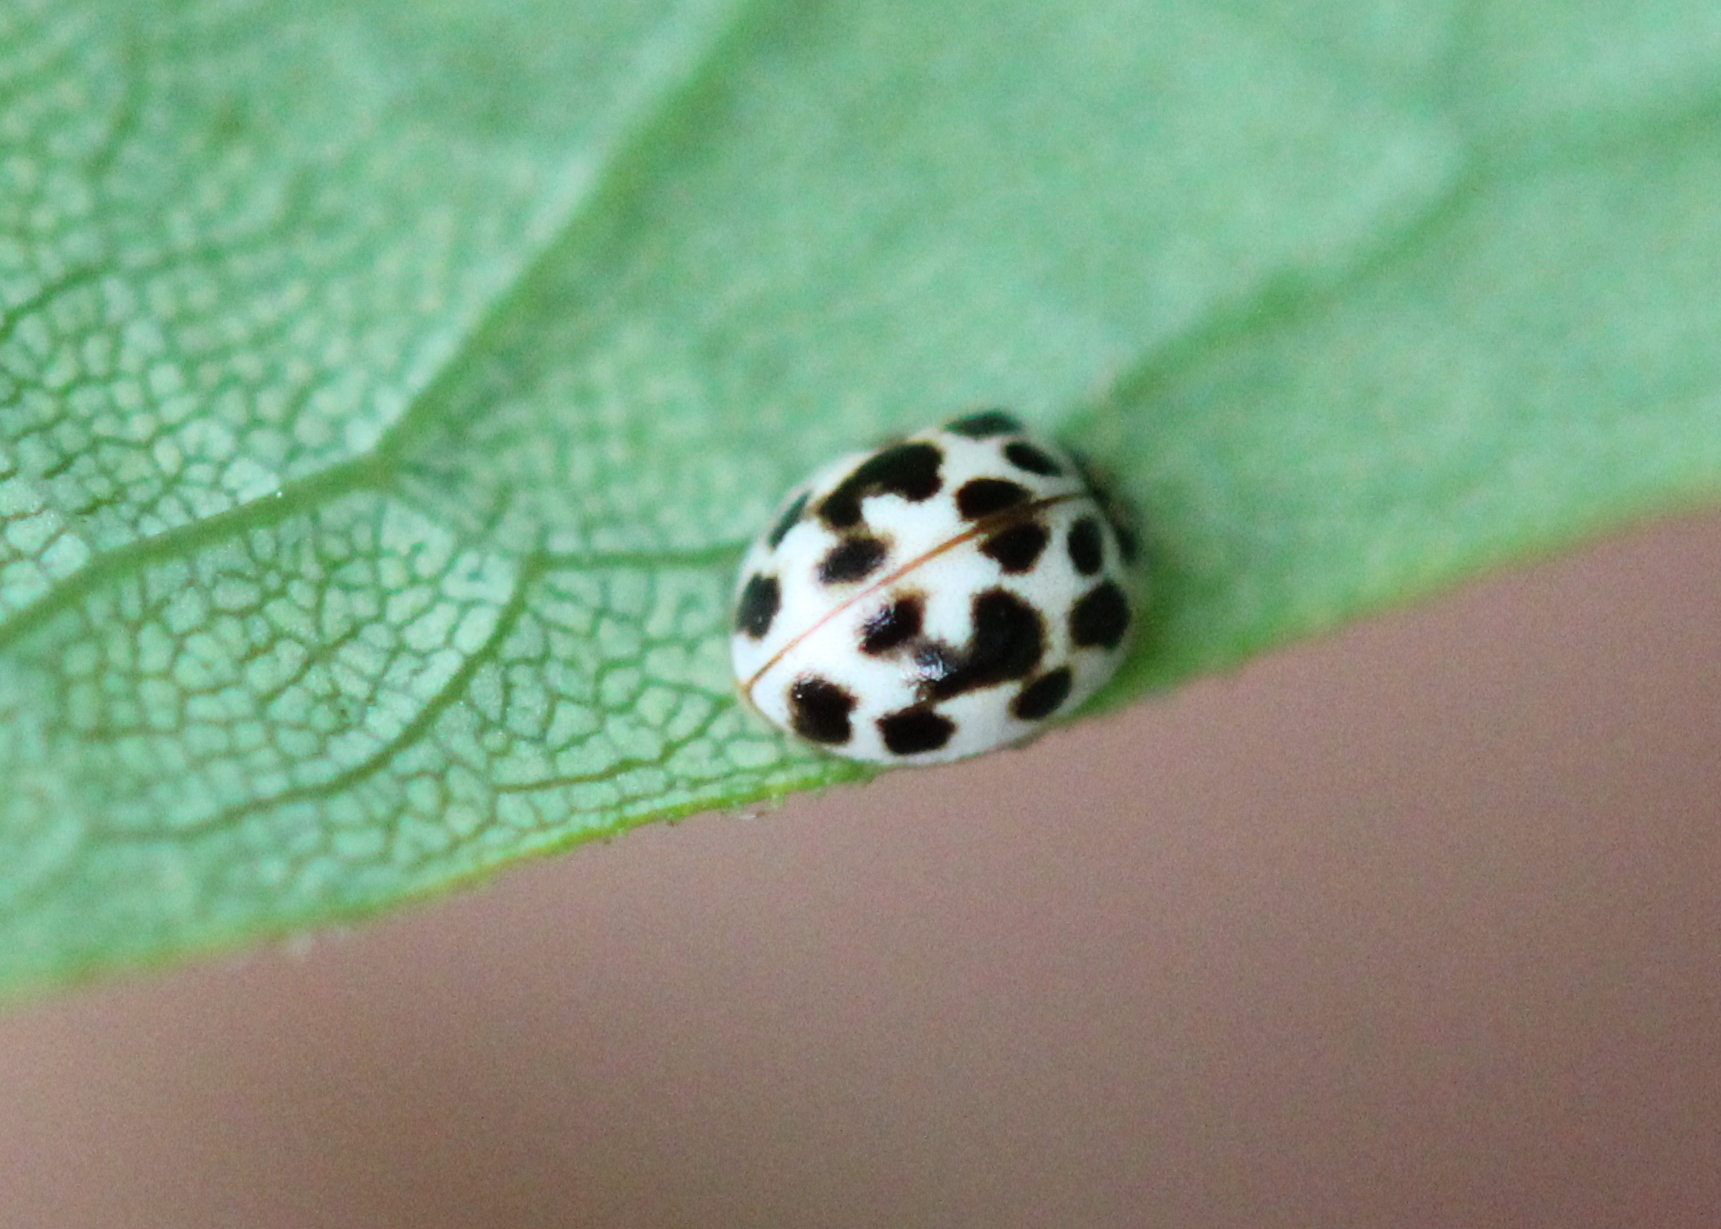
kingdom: Animalia
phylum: Arthropoda
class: Insecta
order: Coleoptera
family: Coccinellidae
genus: Psyllobora
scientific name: Psyllobora vigintimaculata
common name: Ladybird beetle
